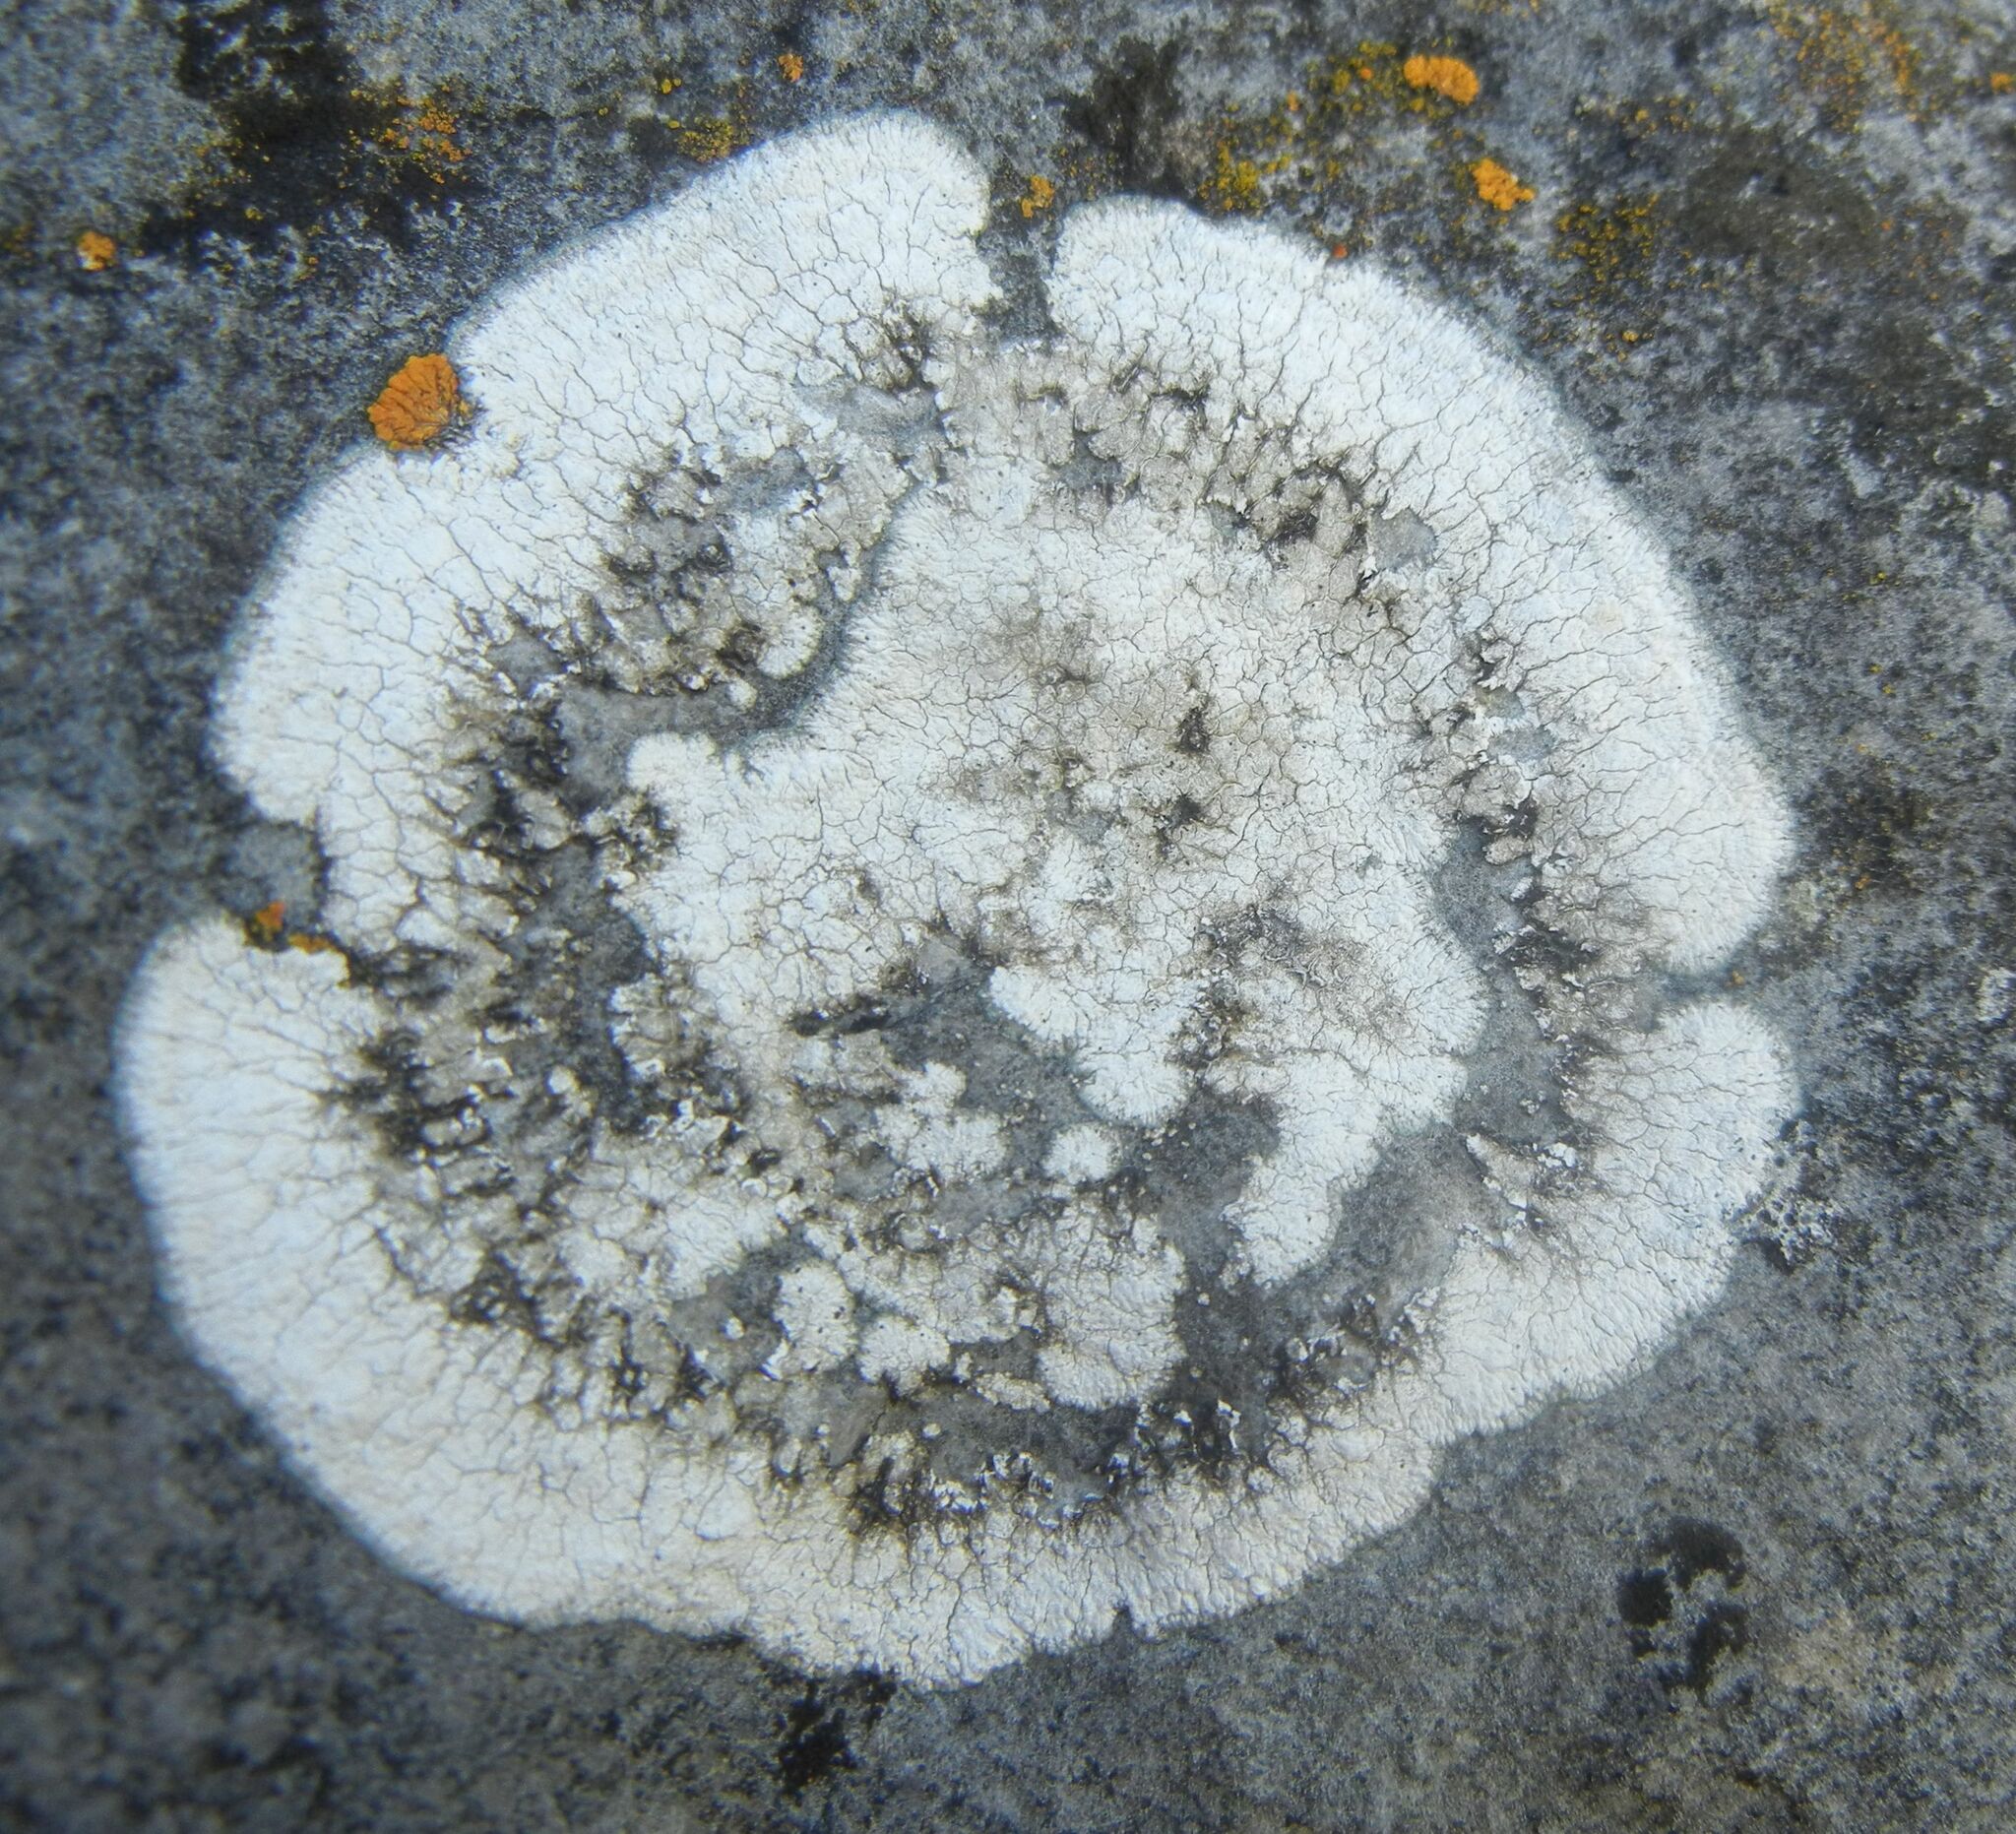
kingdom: Fungi
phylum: Ascomycota
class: Lecanoromycetes
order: Pertusariales
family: Megasporaceae
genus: Circinaria
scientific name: Circinaria calcarea
